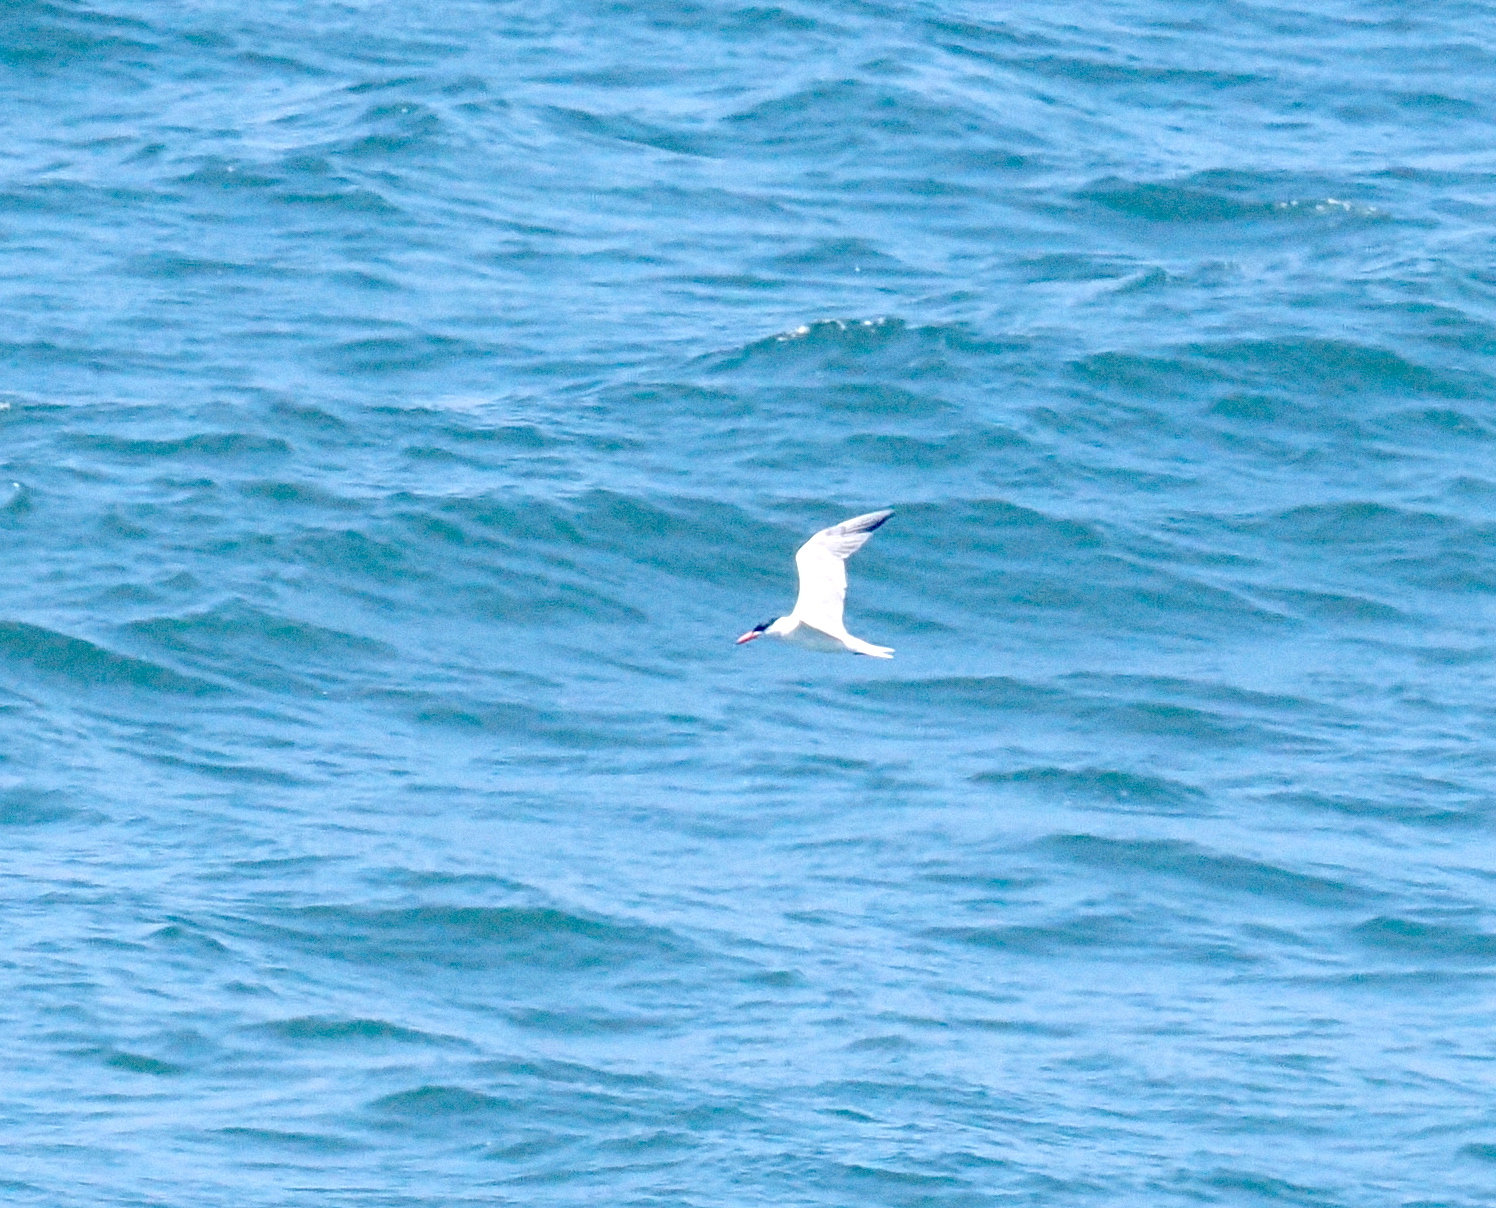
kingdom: Animalia
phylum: Chordata
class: Aves
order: Charadriiformes
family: Laridae
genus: Thalasseus
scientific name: Thalasseus elegans
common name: Elegant tern
